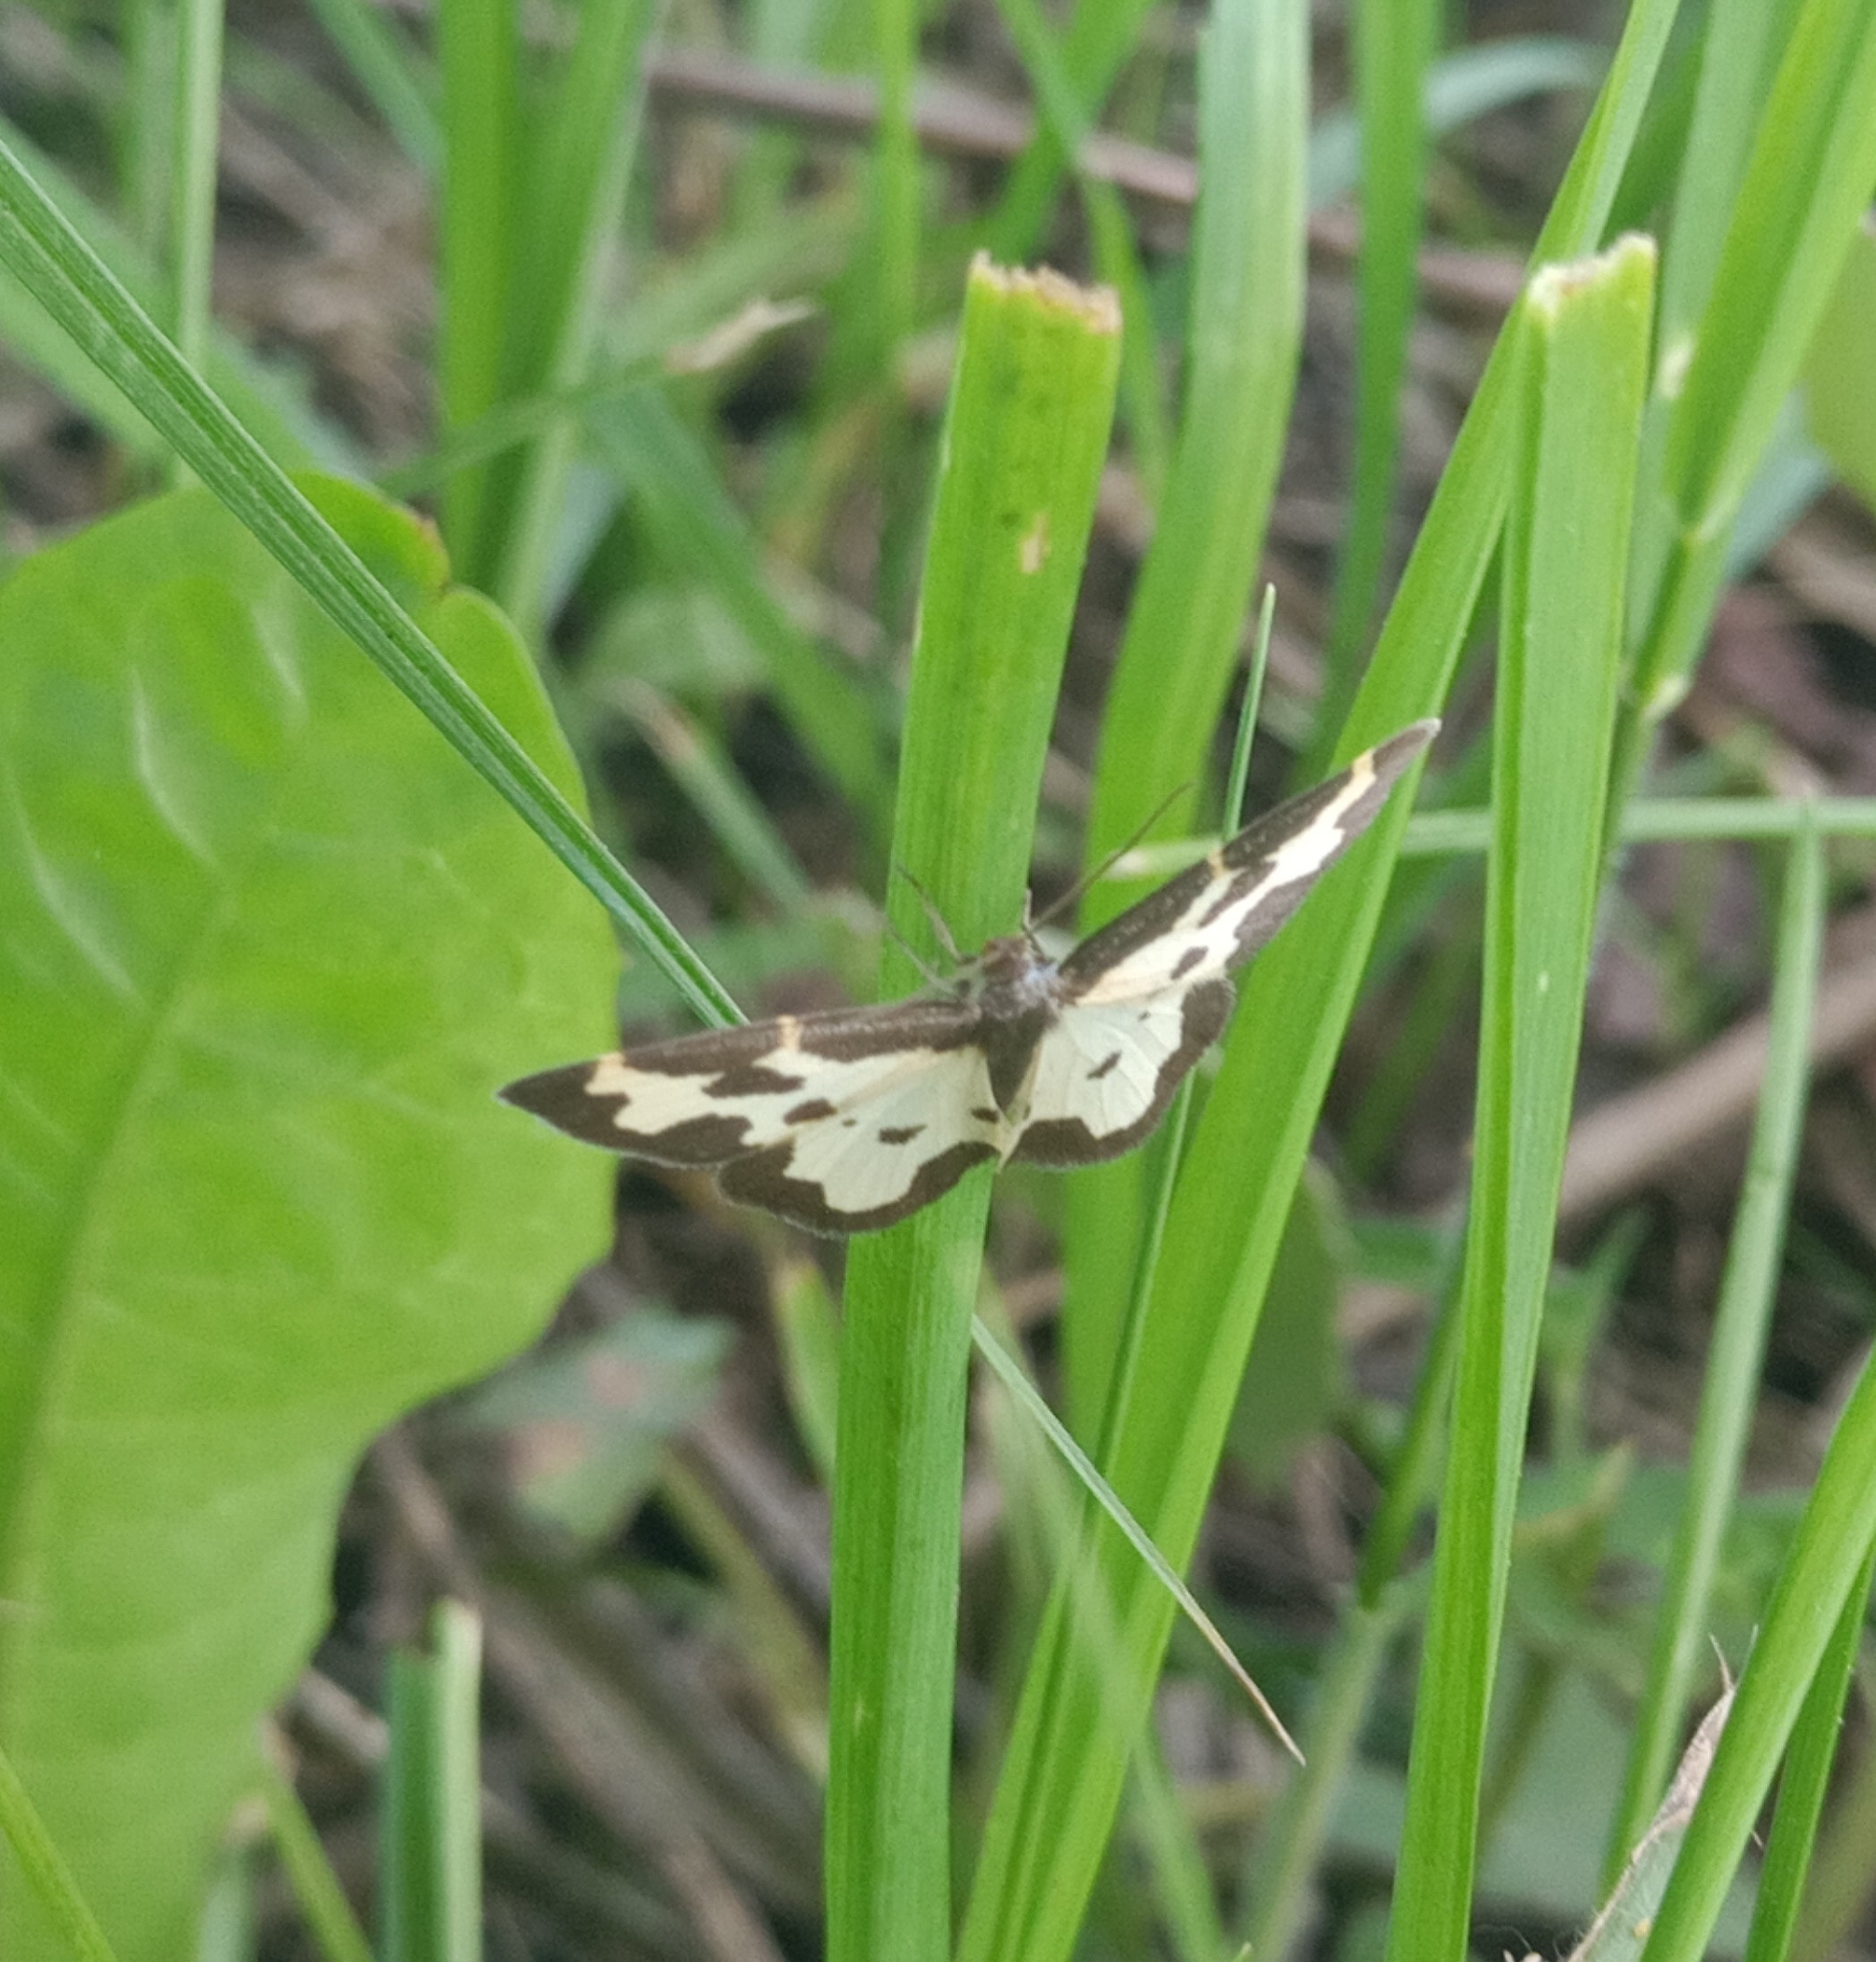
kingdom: Animalia
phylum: Arthropoda
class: Insecta
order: Lepidoptera
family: Geometridae
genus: Lomaspilis
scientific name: Lomaspilis marginata
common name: Clouded border
